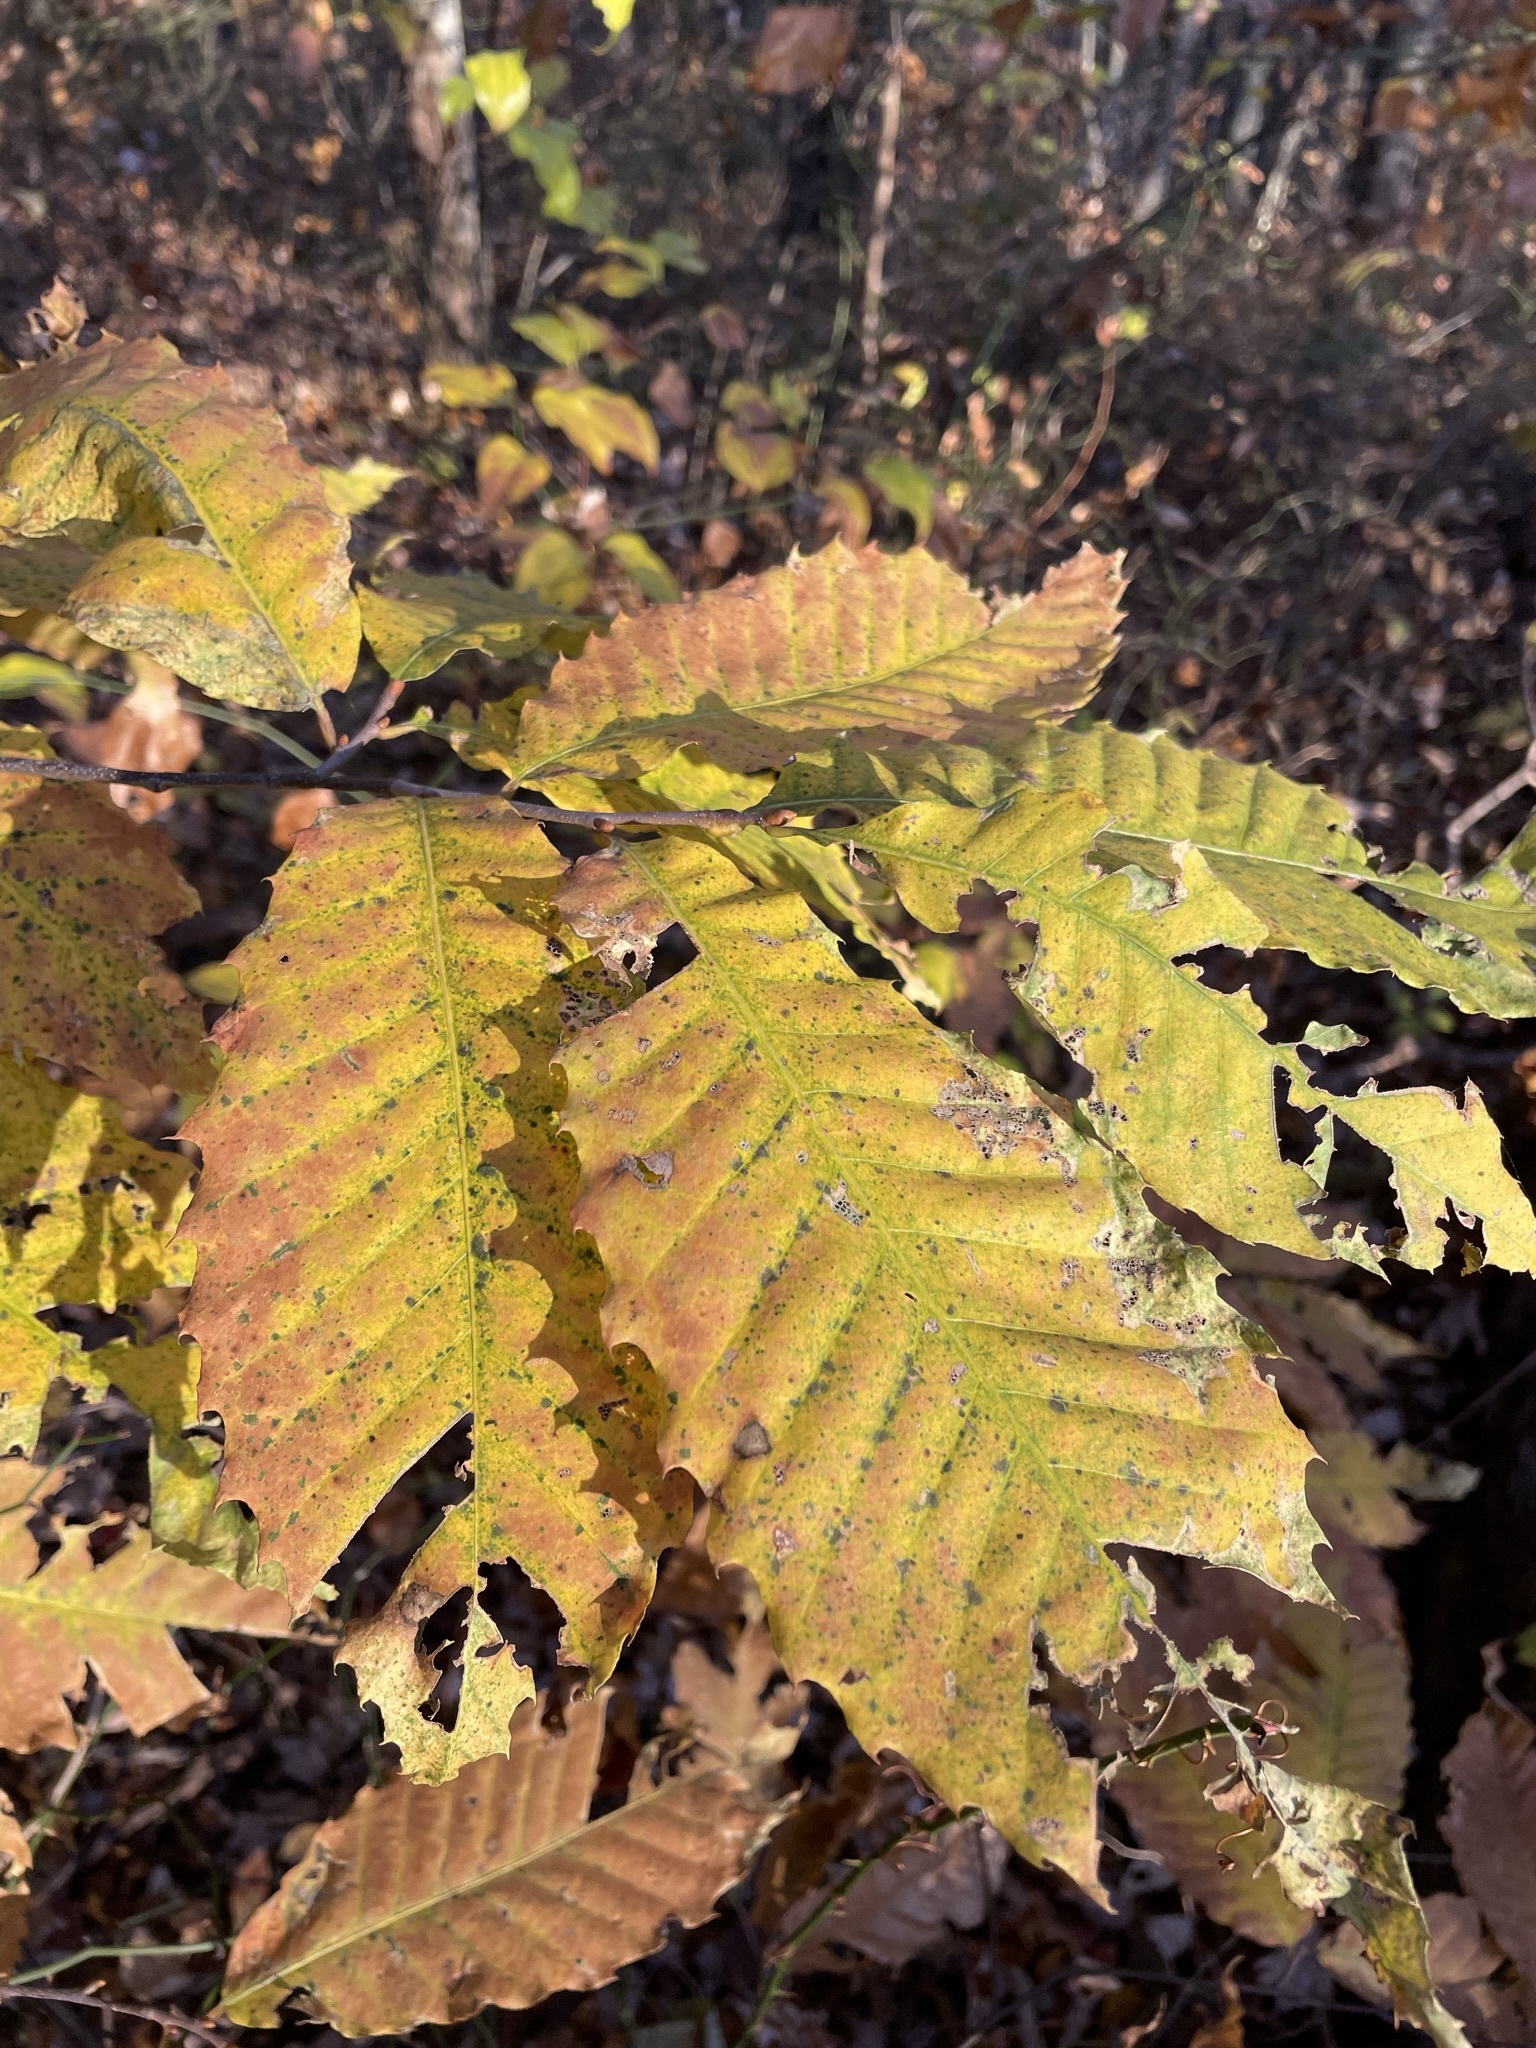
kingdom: Plantae
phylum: Tracheophyta
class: Magnoliopsida
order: Fagales
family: Fagaceae
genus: Castanea
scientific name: Castanea dentata
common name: American chestnut
